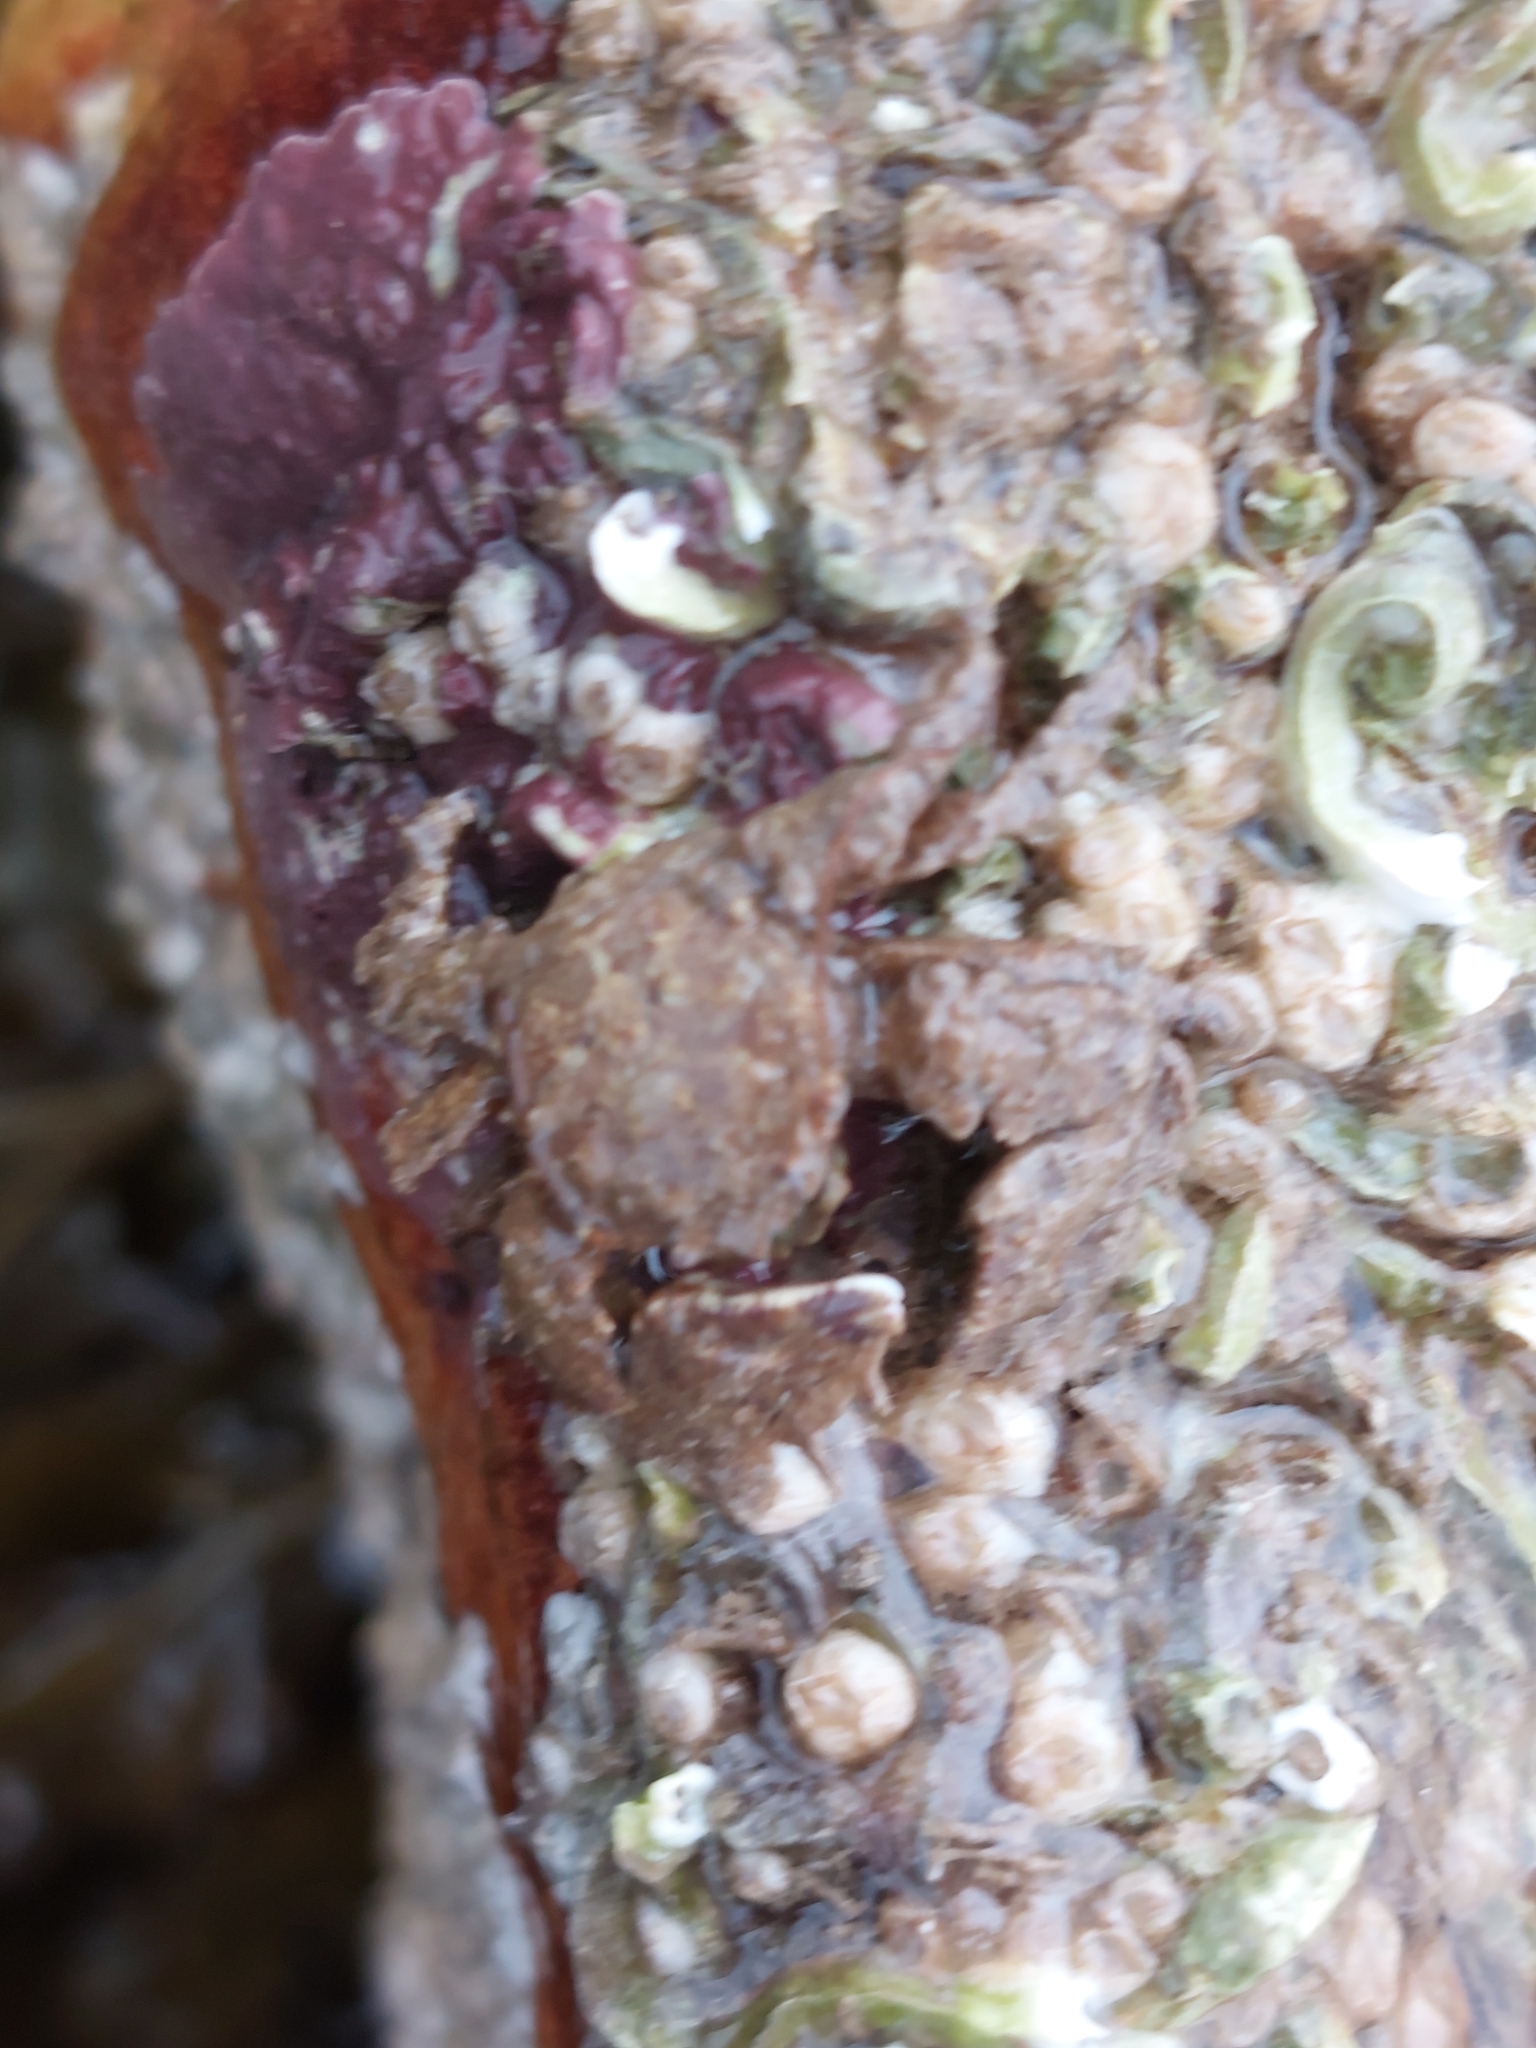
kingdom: Animalia
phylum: Arthropoda
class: Malacostraca
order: Decapoda
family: Porcellanidae
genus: Porcellana
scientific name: Porcellana platycheles
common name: Porcelain crab
